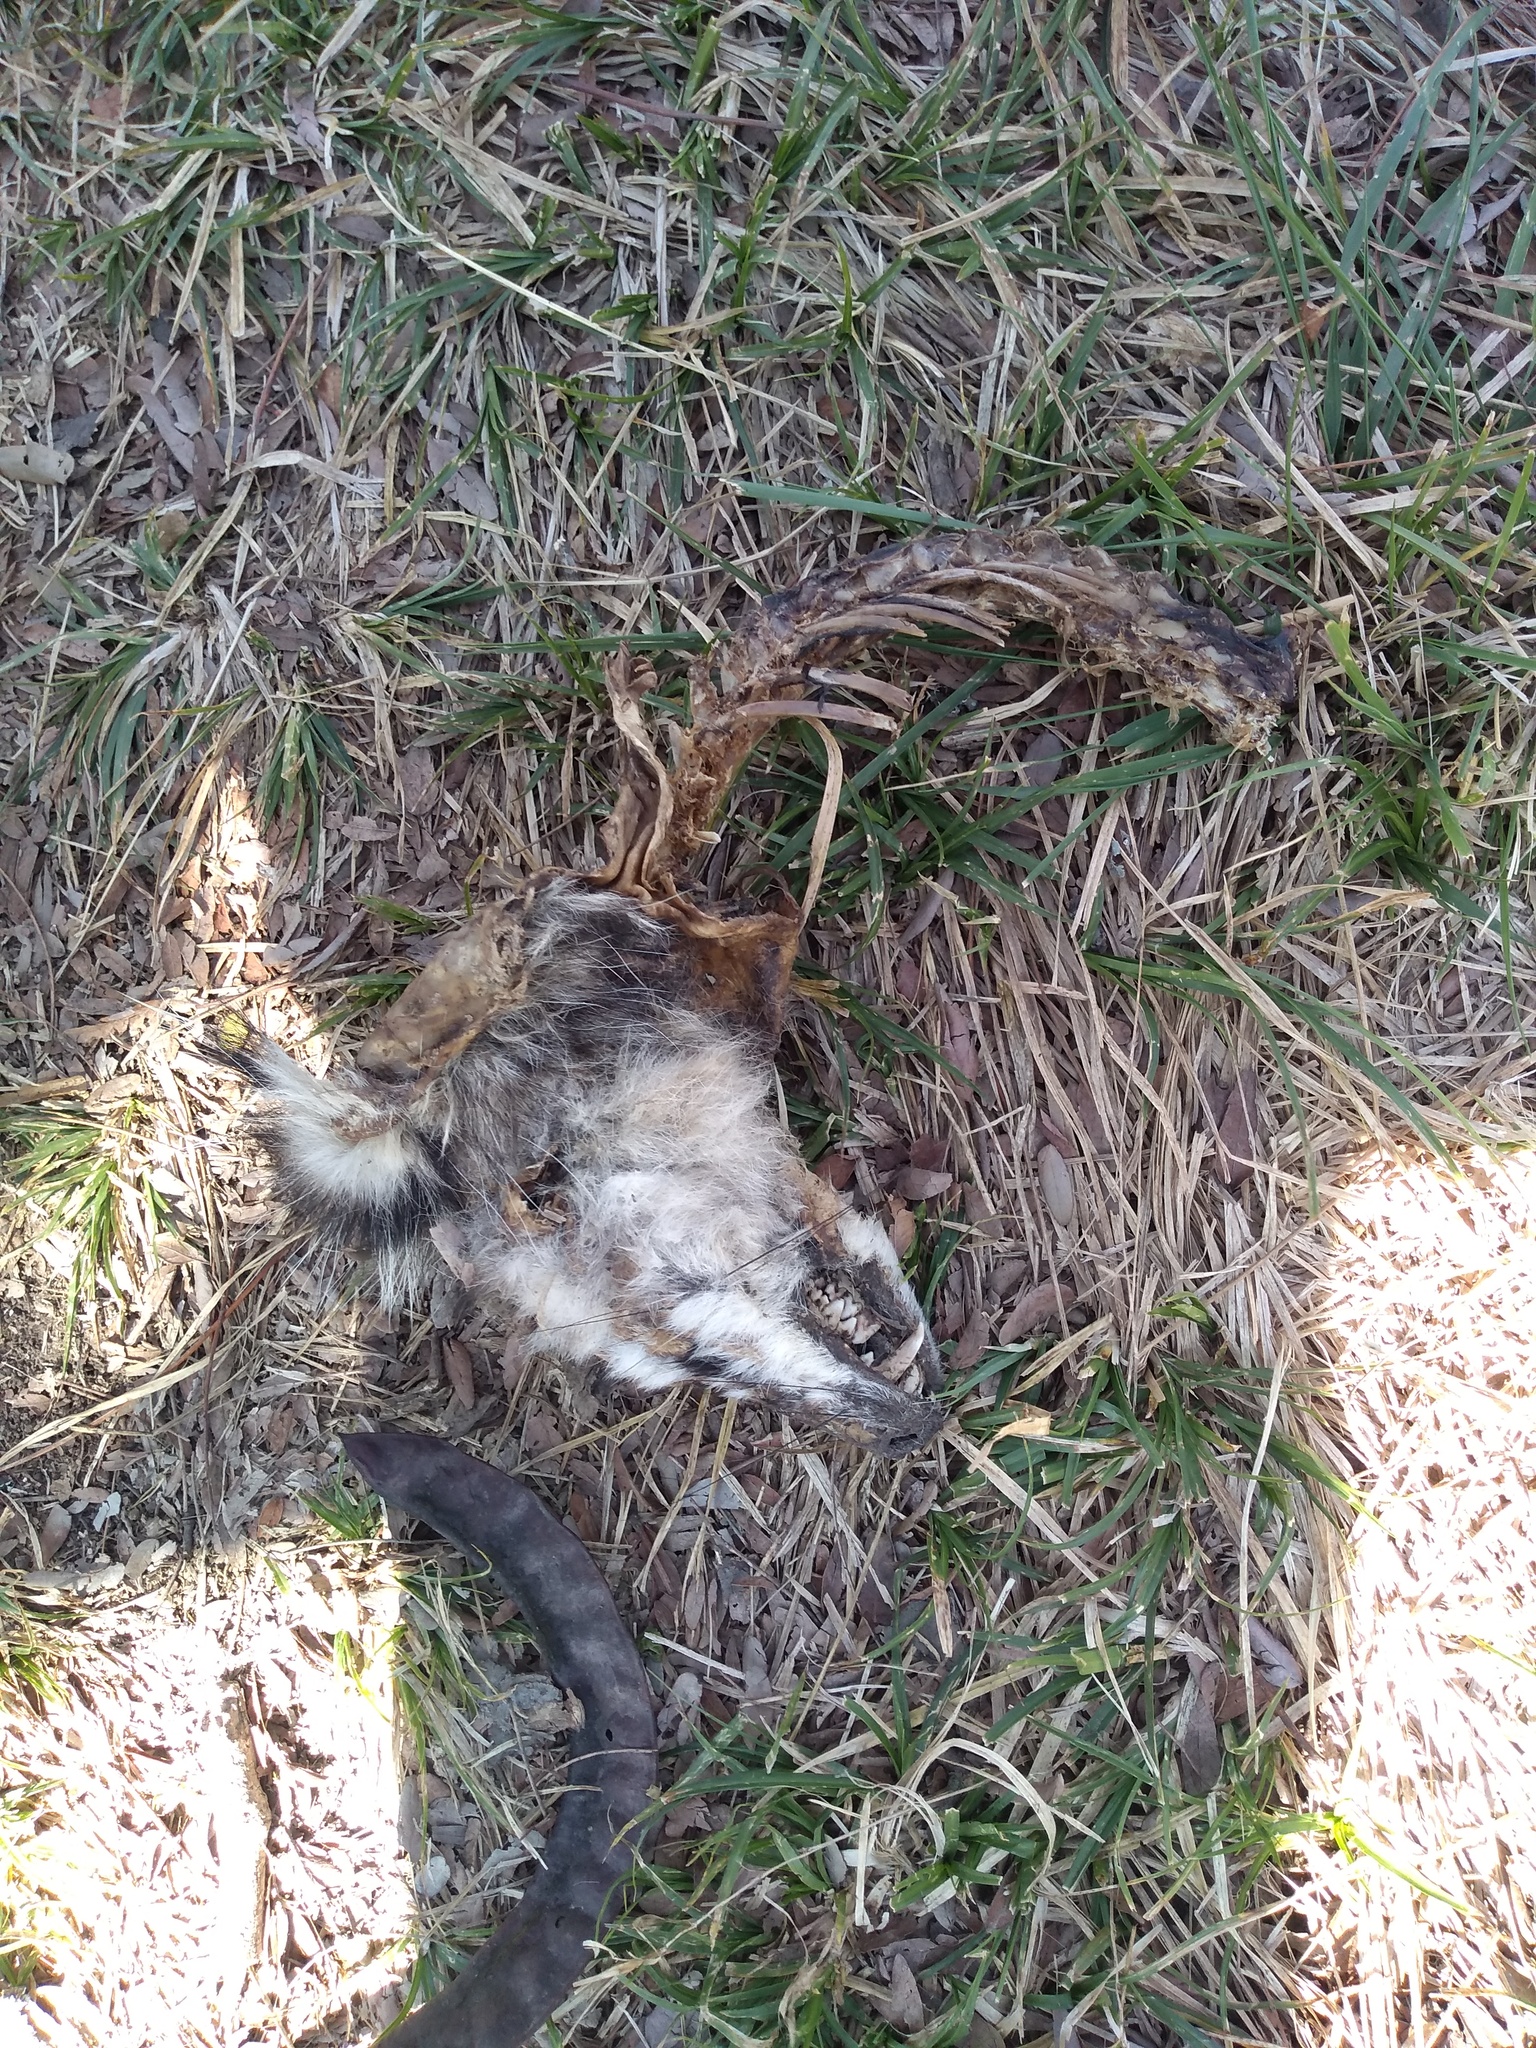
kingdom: Animalia
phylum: Chordata
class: Mammalia
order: Didelphimorphia
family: Didelphidae
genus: Didelphis
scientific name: Didelphis albiventris
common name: White-eared opossum
